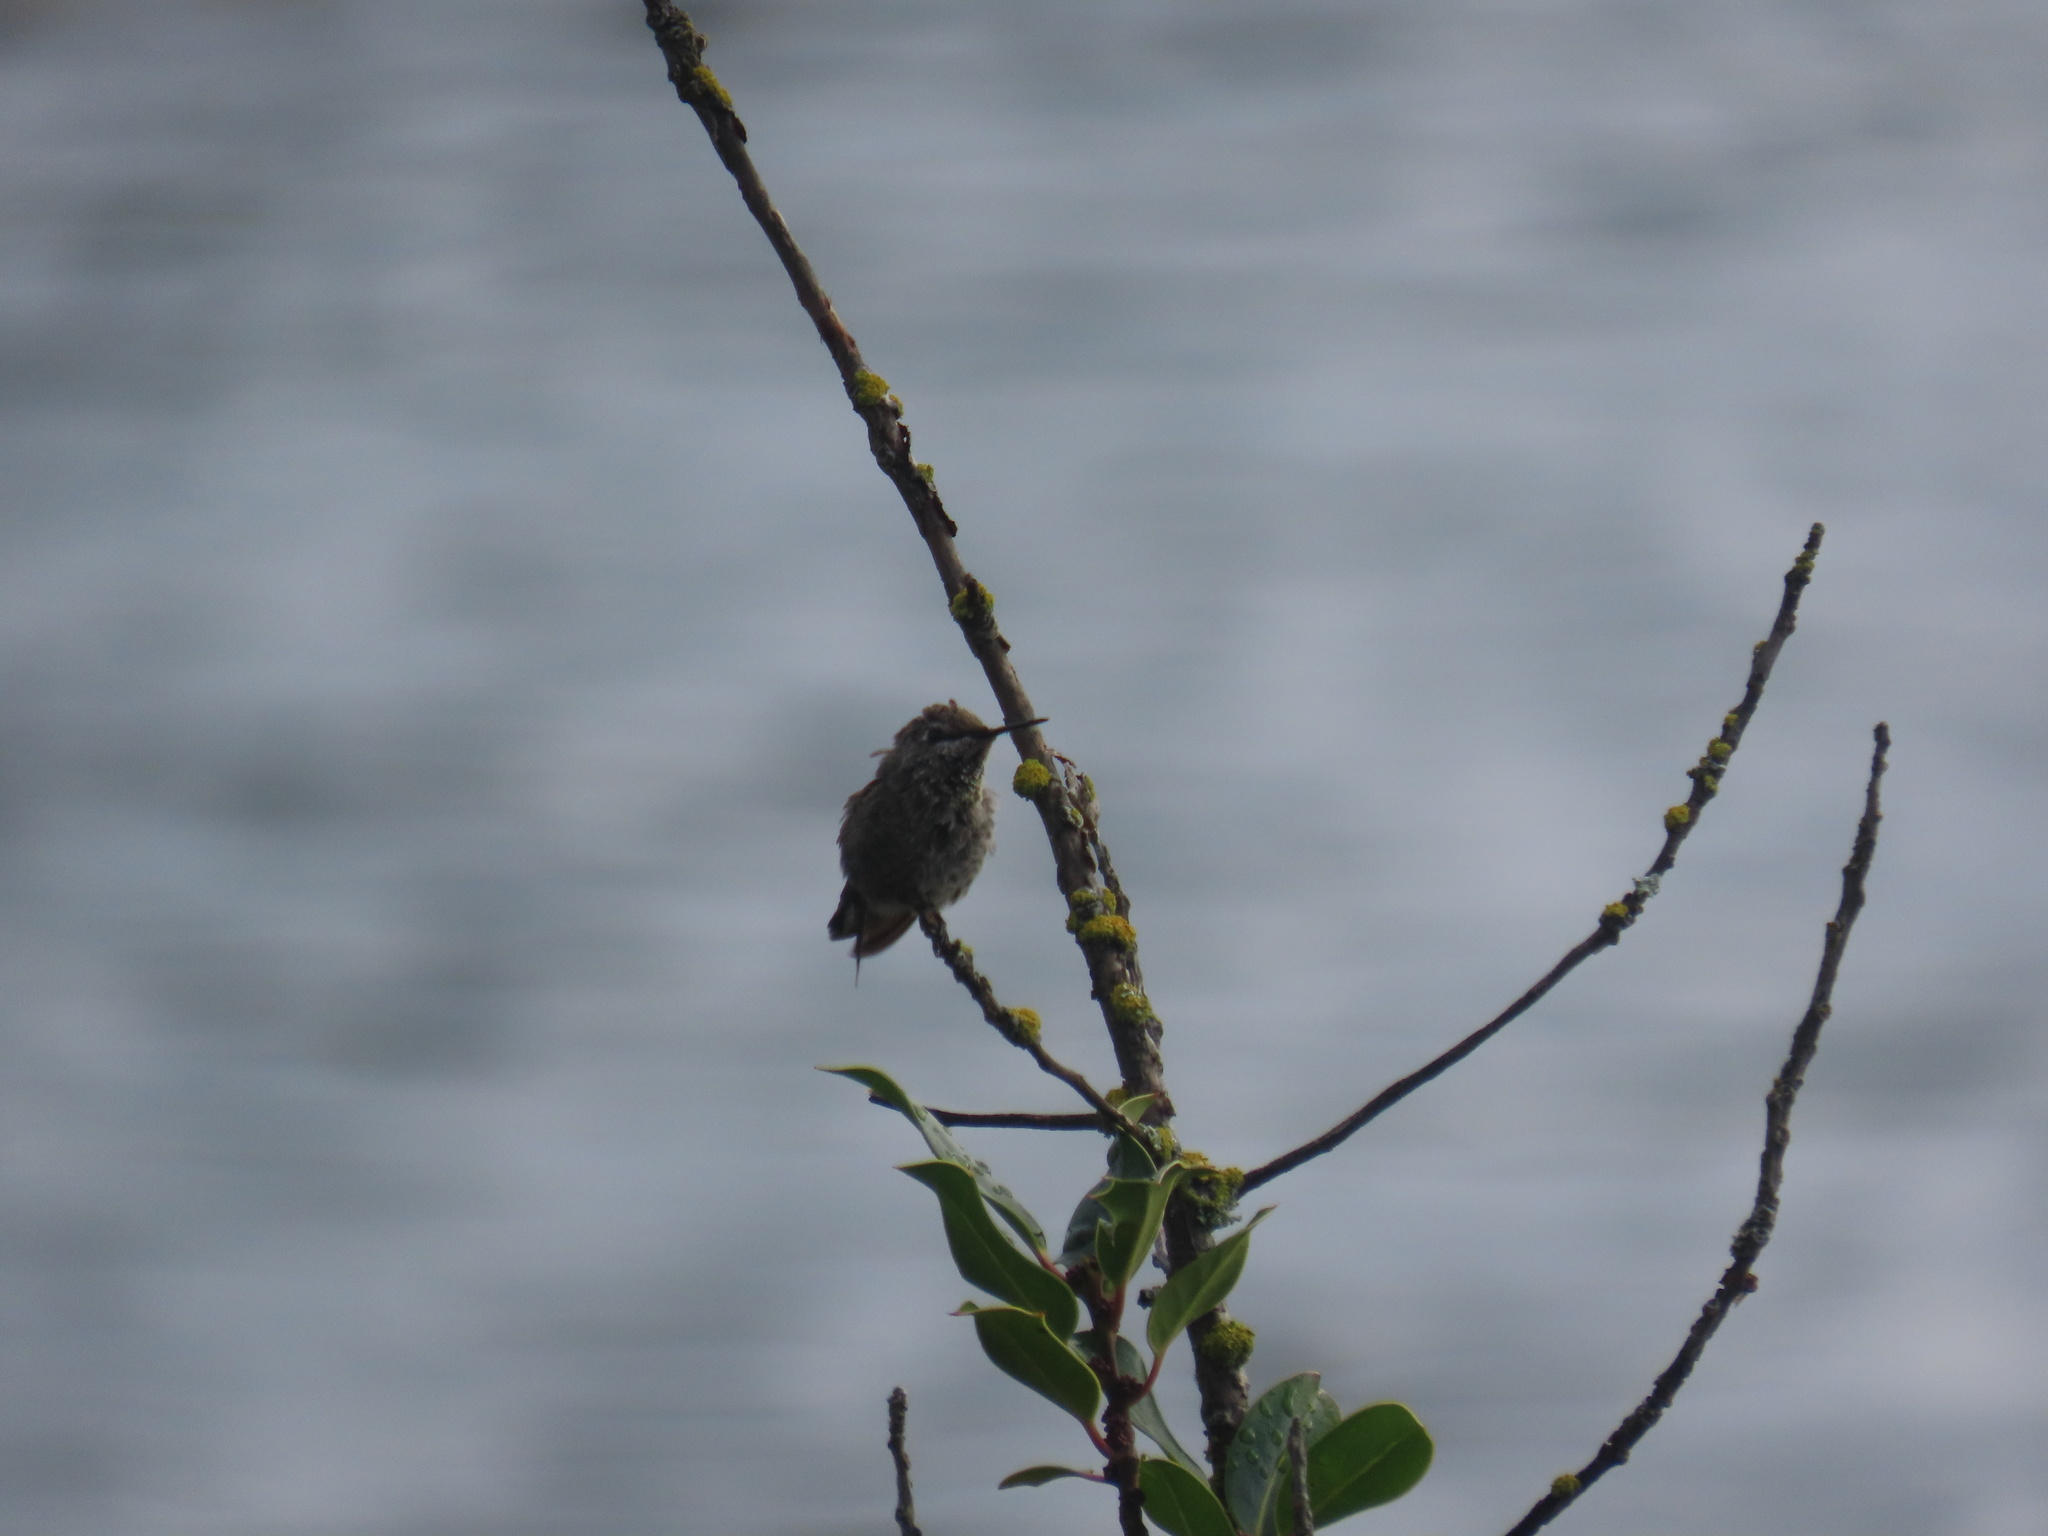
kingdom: Animalia
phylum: Chordata
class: Aves
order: Apodiformes
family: Trochilidae
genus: Calypte
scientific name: Calypte anna
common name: Anna's hummingbird
